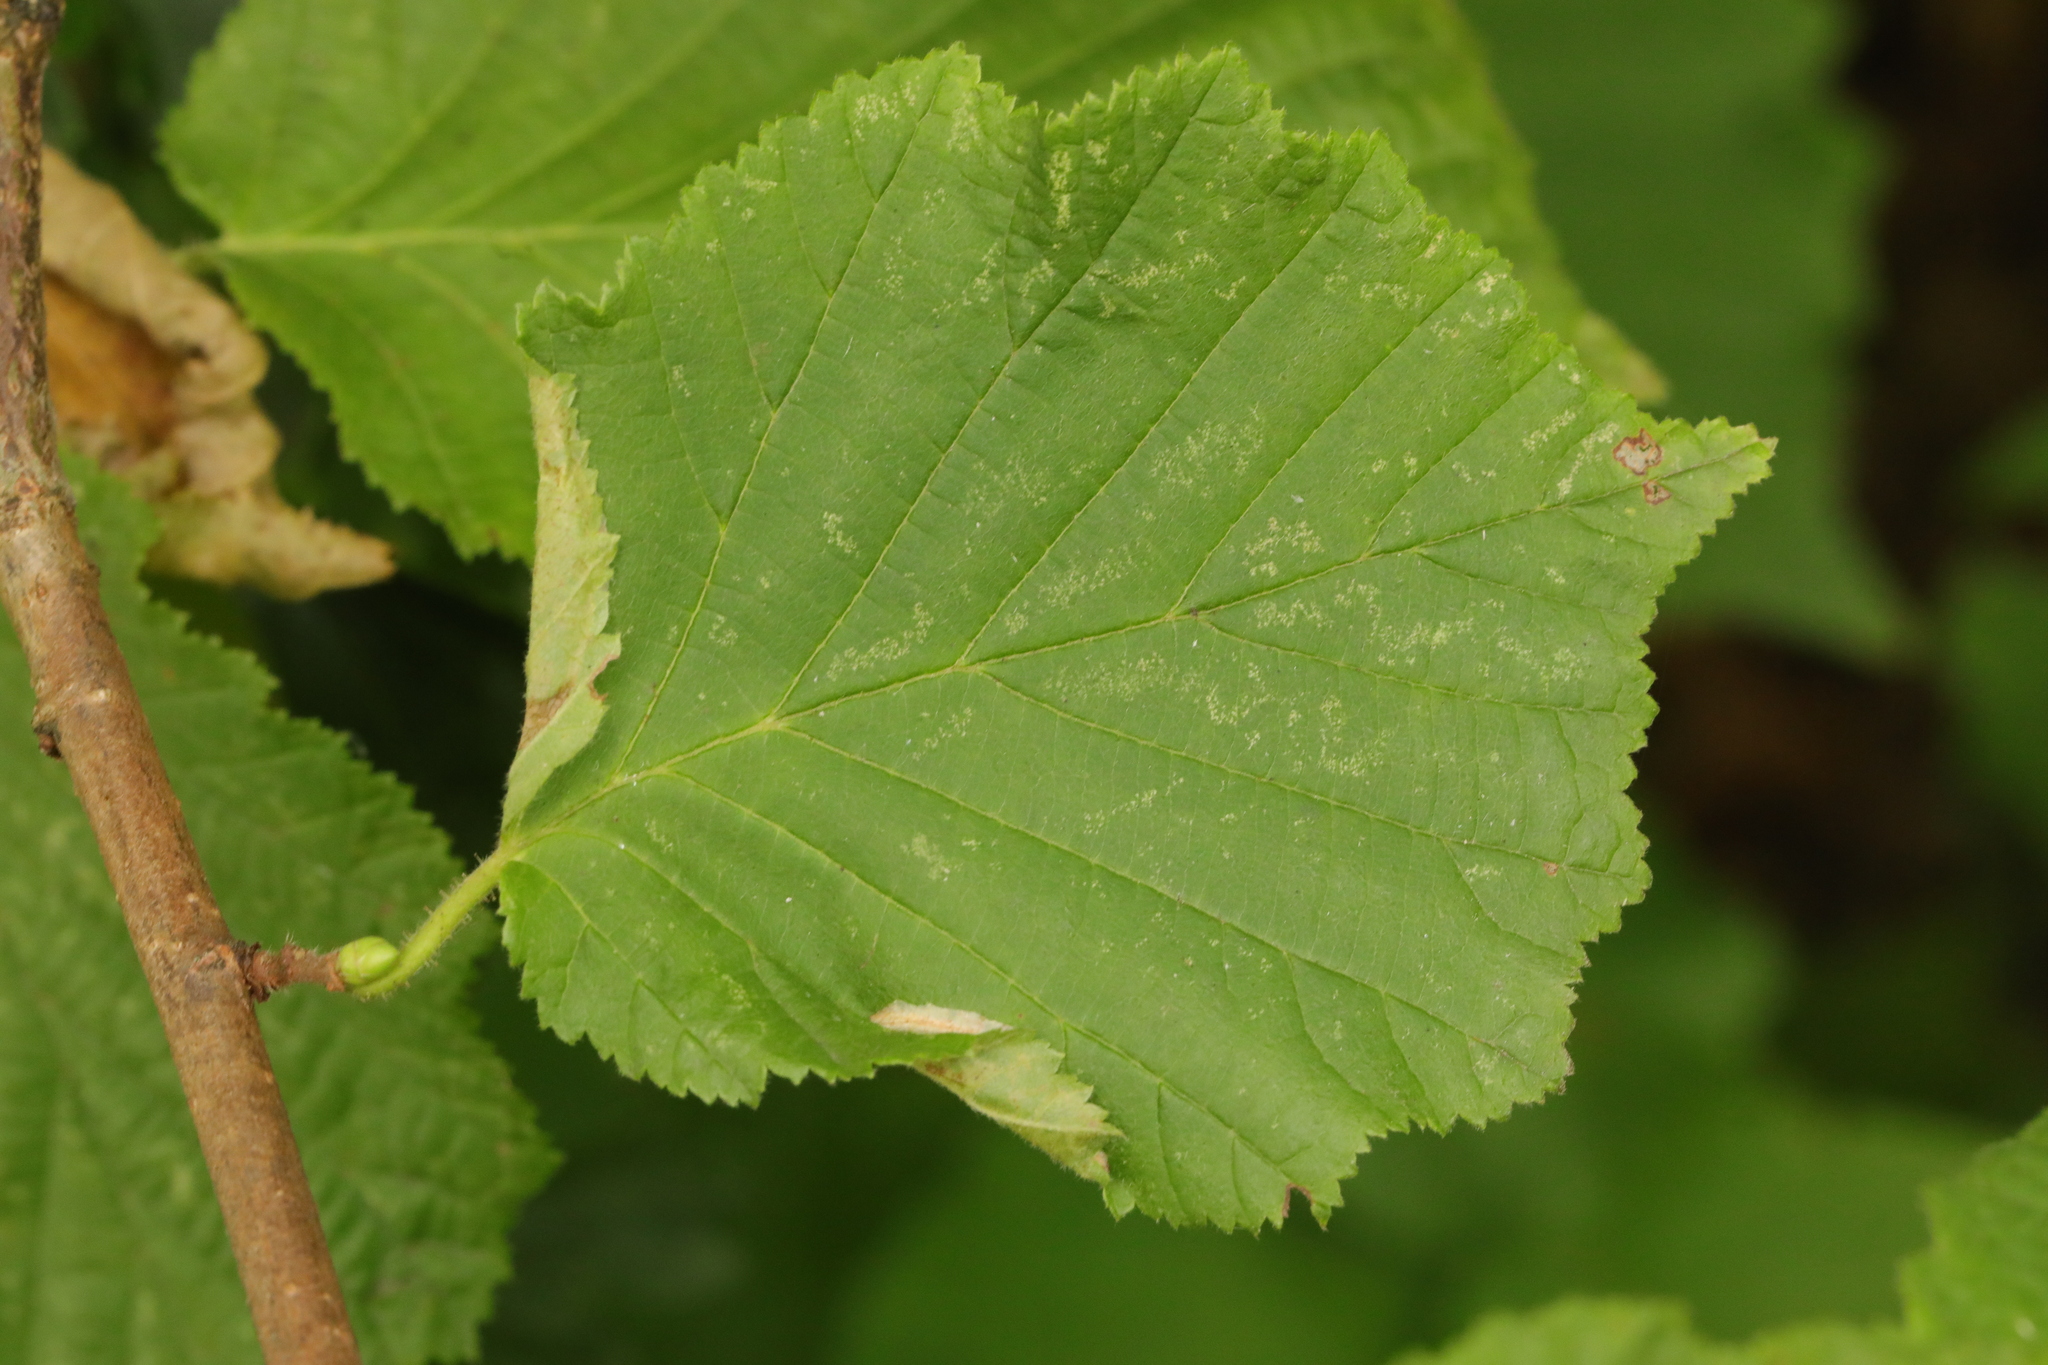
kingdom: Plantae
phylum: Tracheophyta
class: Magnoliopsida
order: Fagales
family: Betulaceae
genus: Corylus
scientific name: Corylus avellana
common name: European hazel
